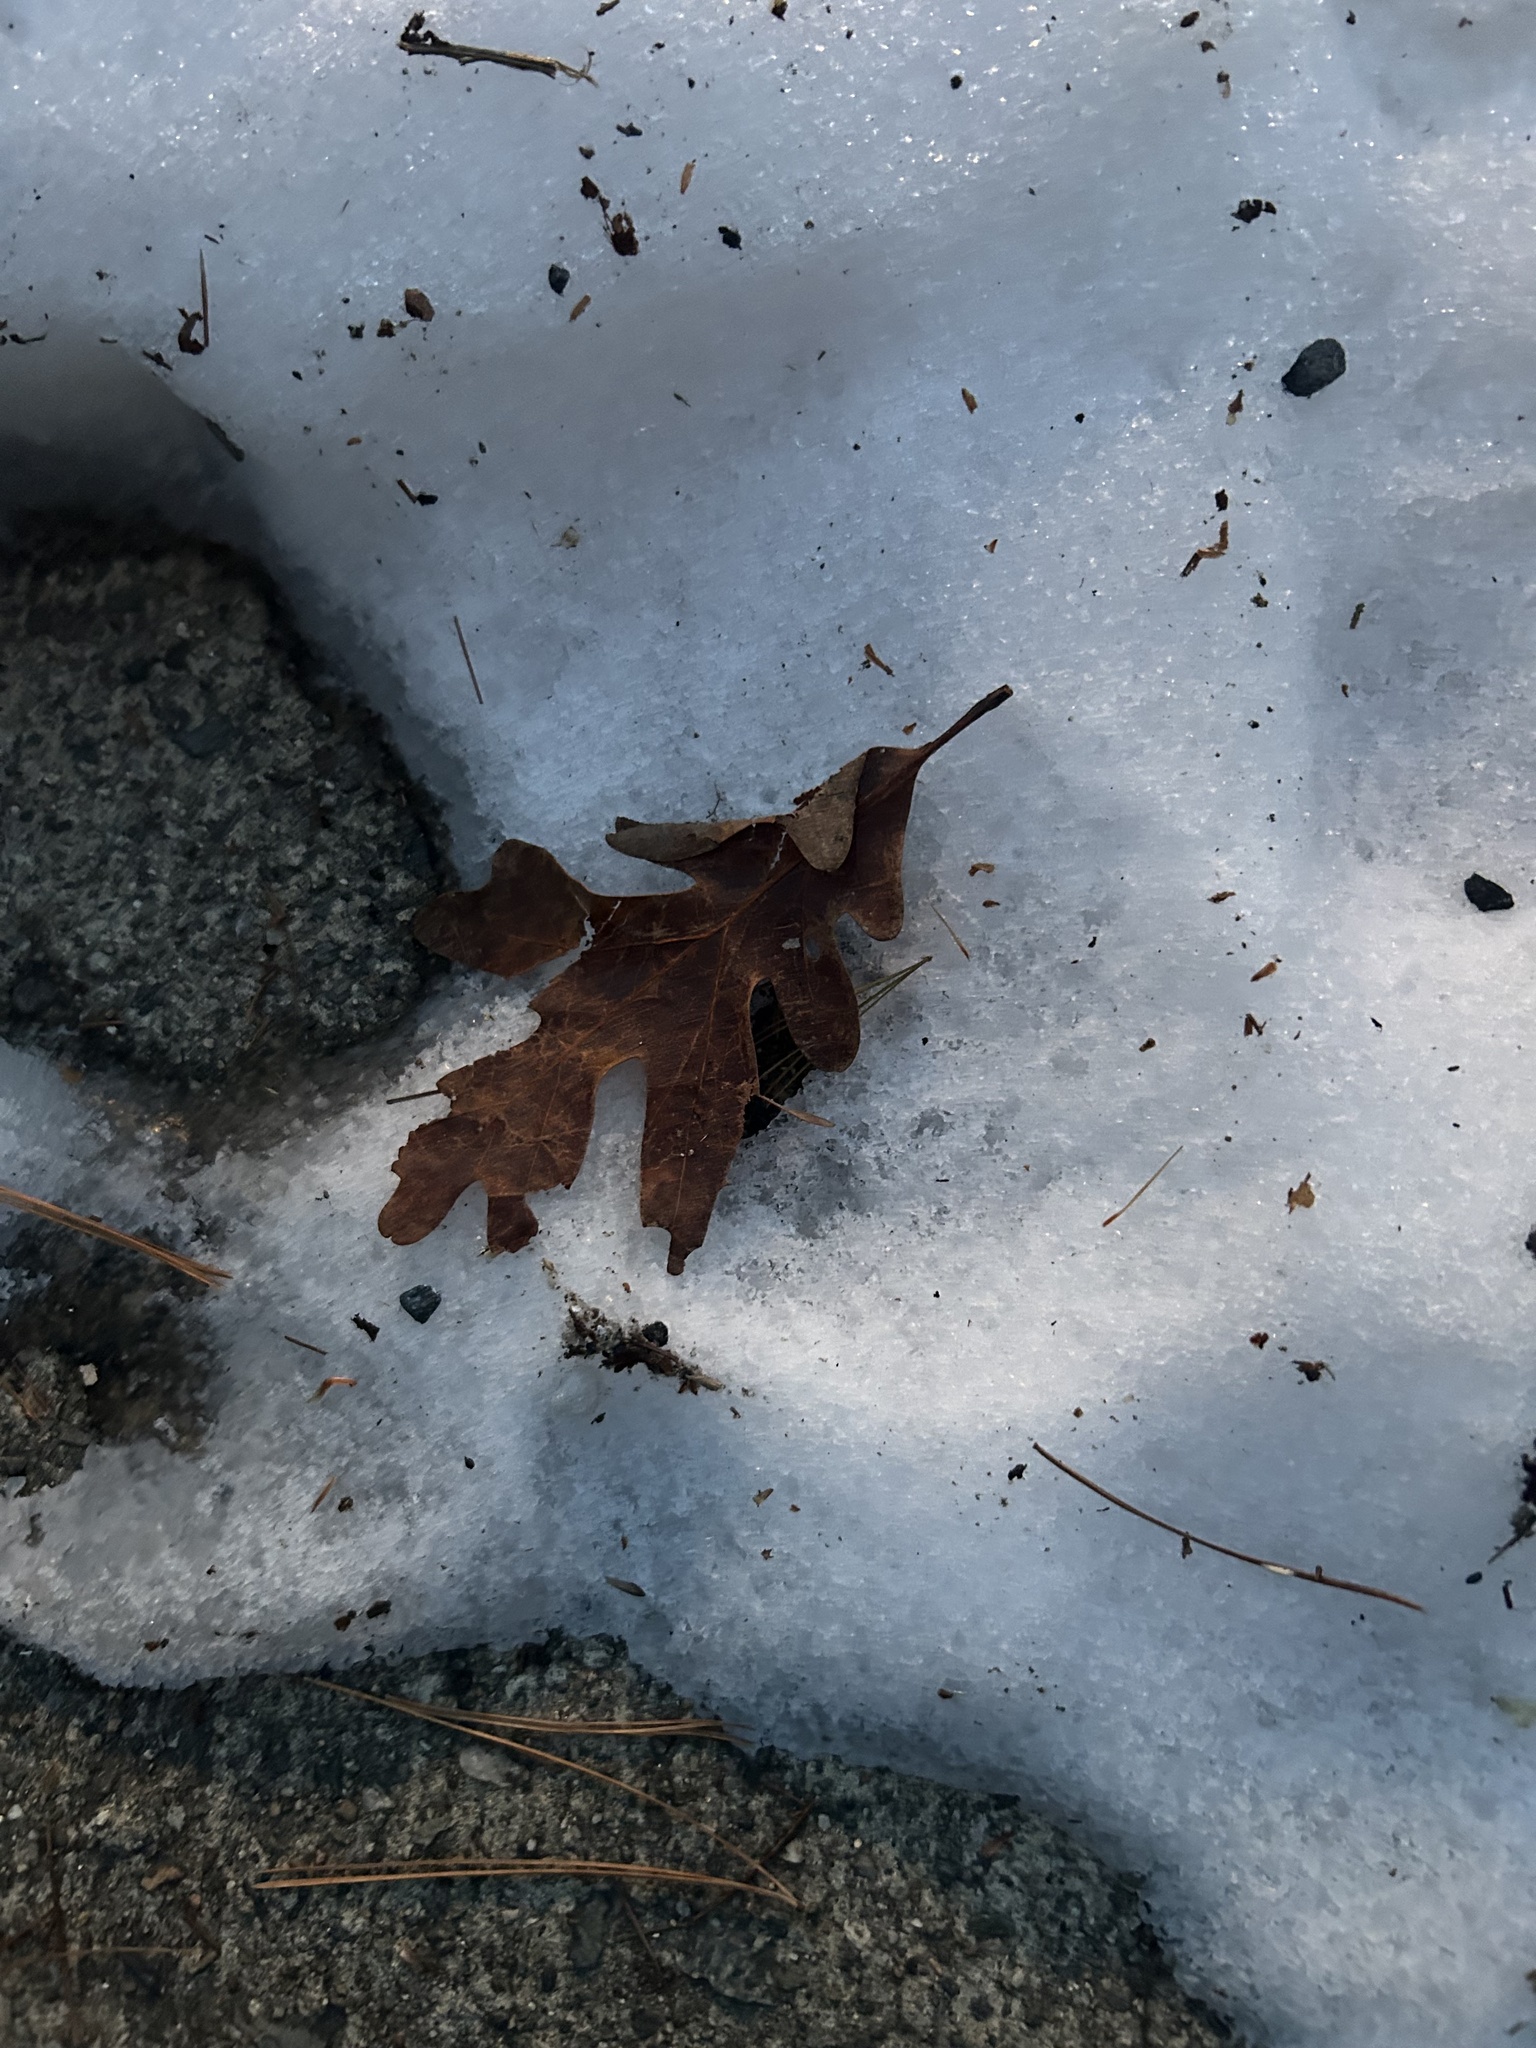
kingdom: Plantae
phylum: Tracheophyta
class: Magnoliopsida
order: Fagales
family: Fagaceae
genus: Quercus
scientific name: Quercus alba
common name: White oak
